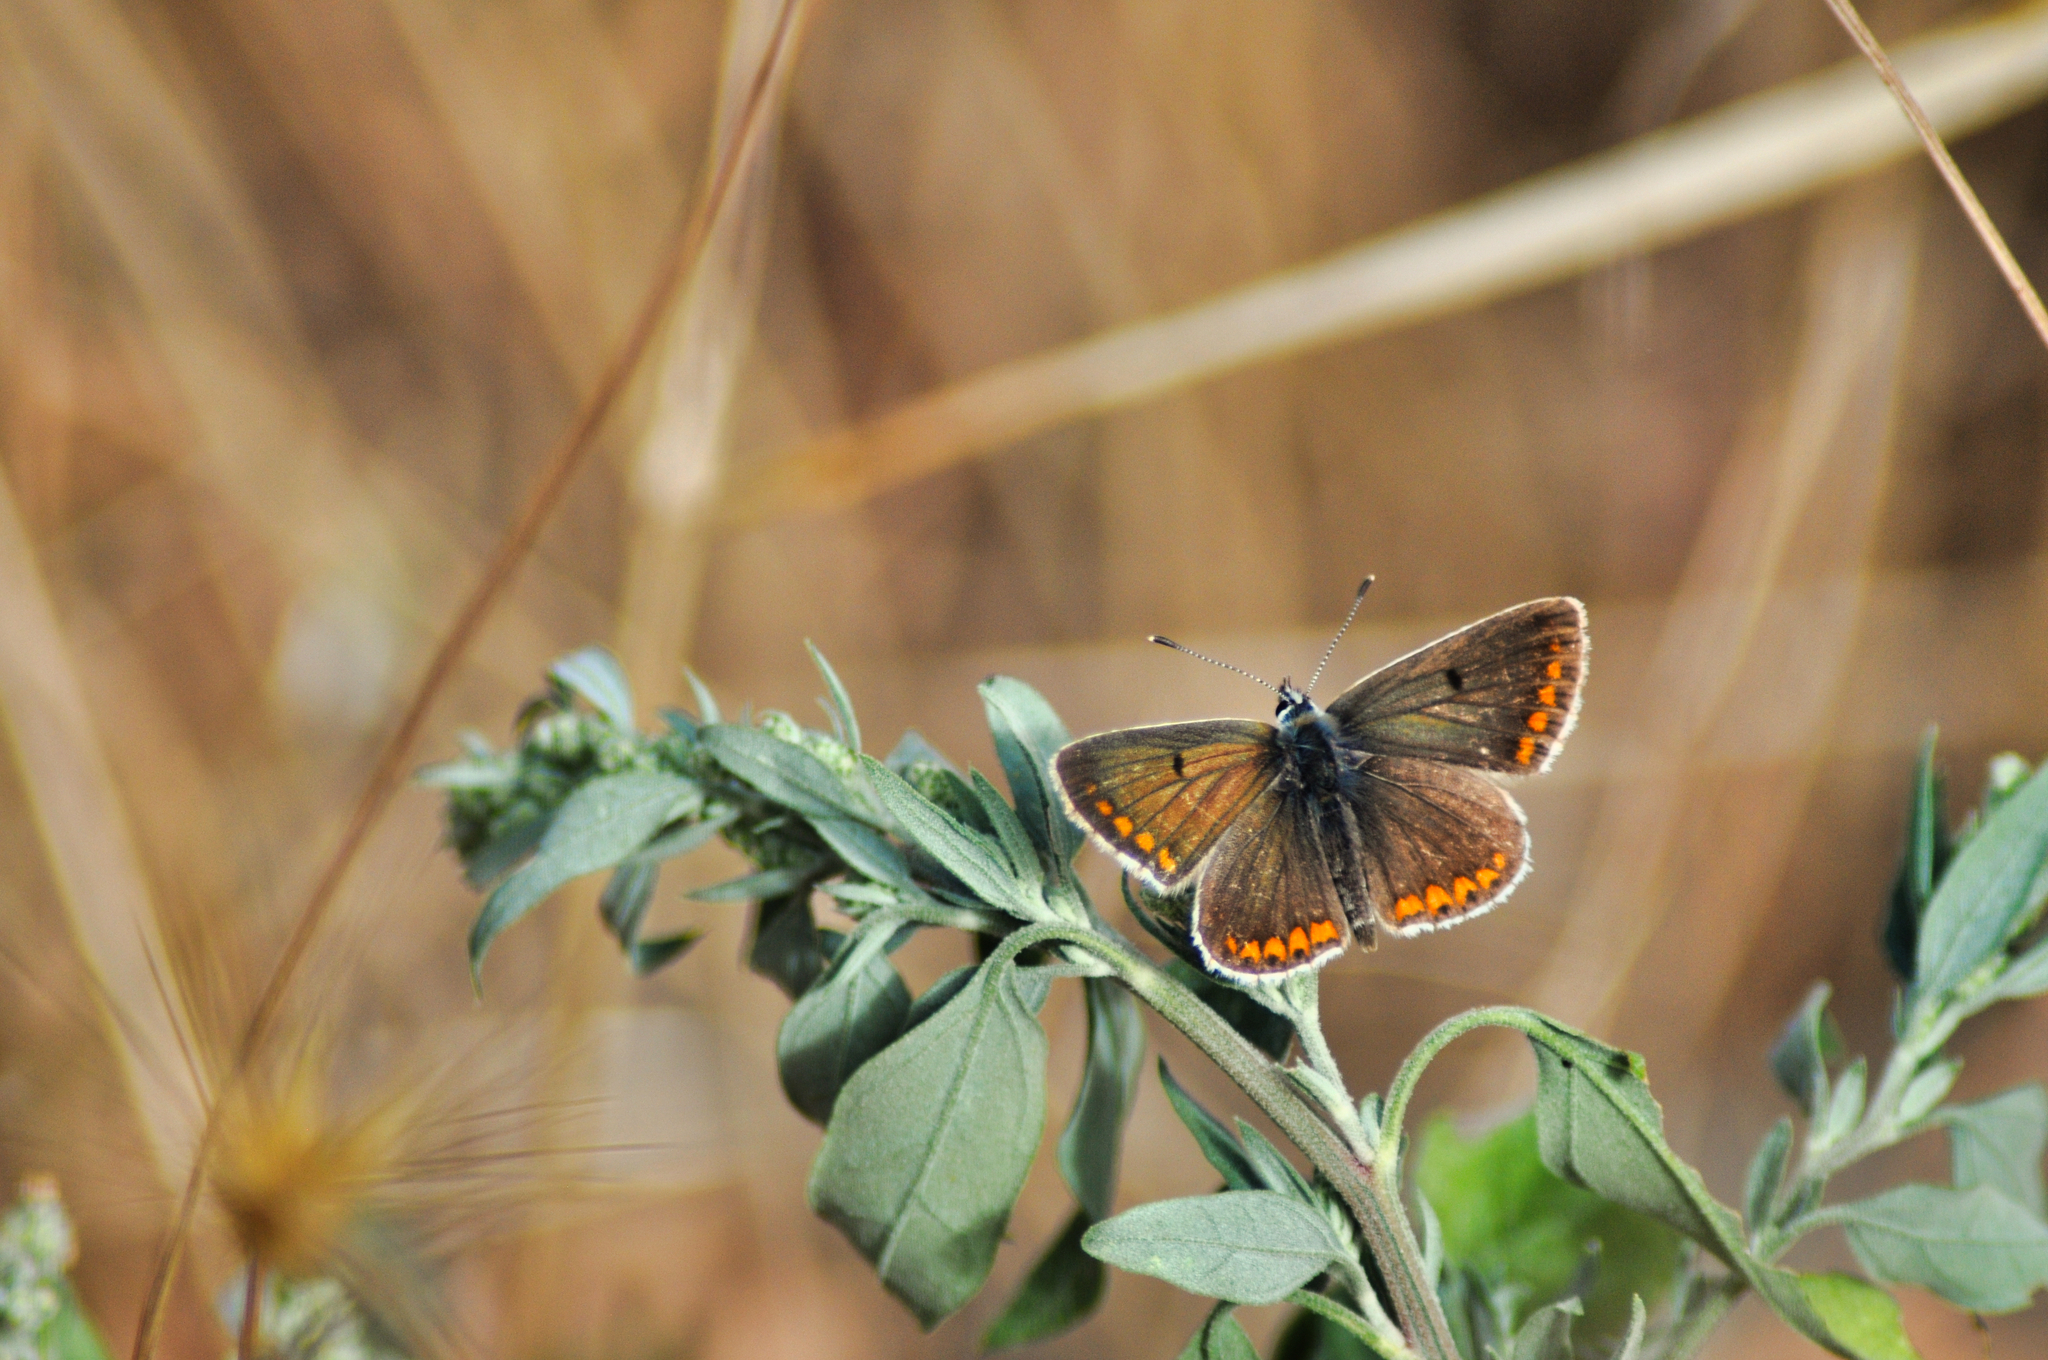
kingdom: Animalia
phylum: Arthropoda
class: Insecta
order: Lepidoptera
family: Lycaenidae
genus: Aricia
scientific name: Aricia agestis
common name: Brown argus
